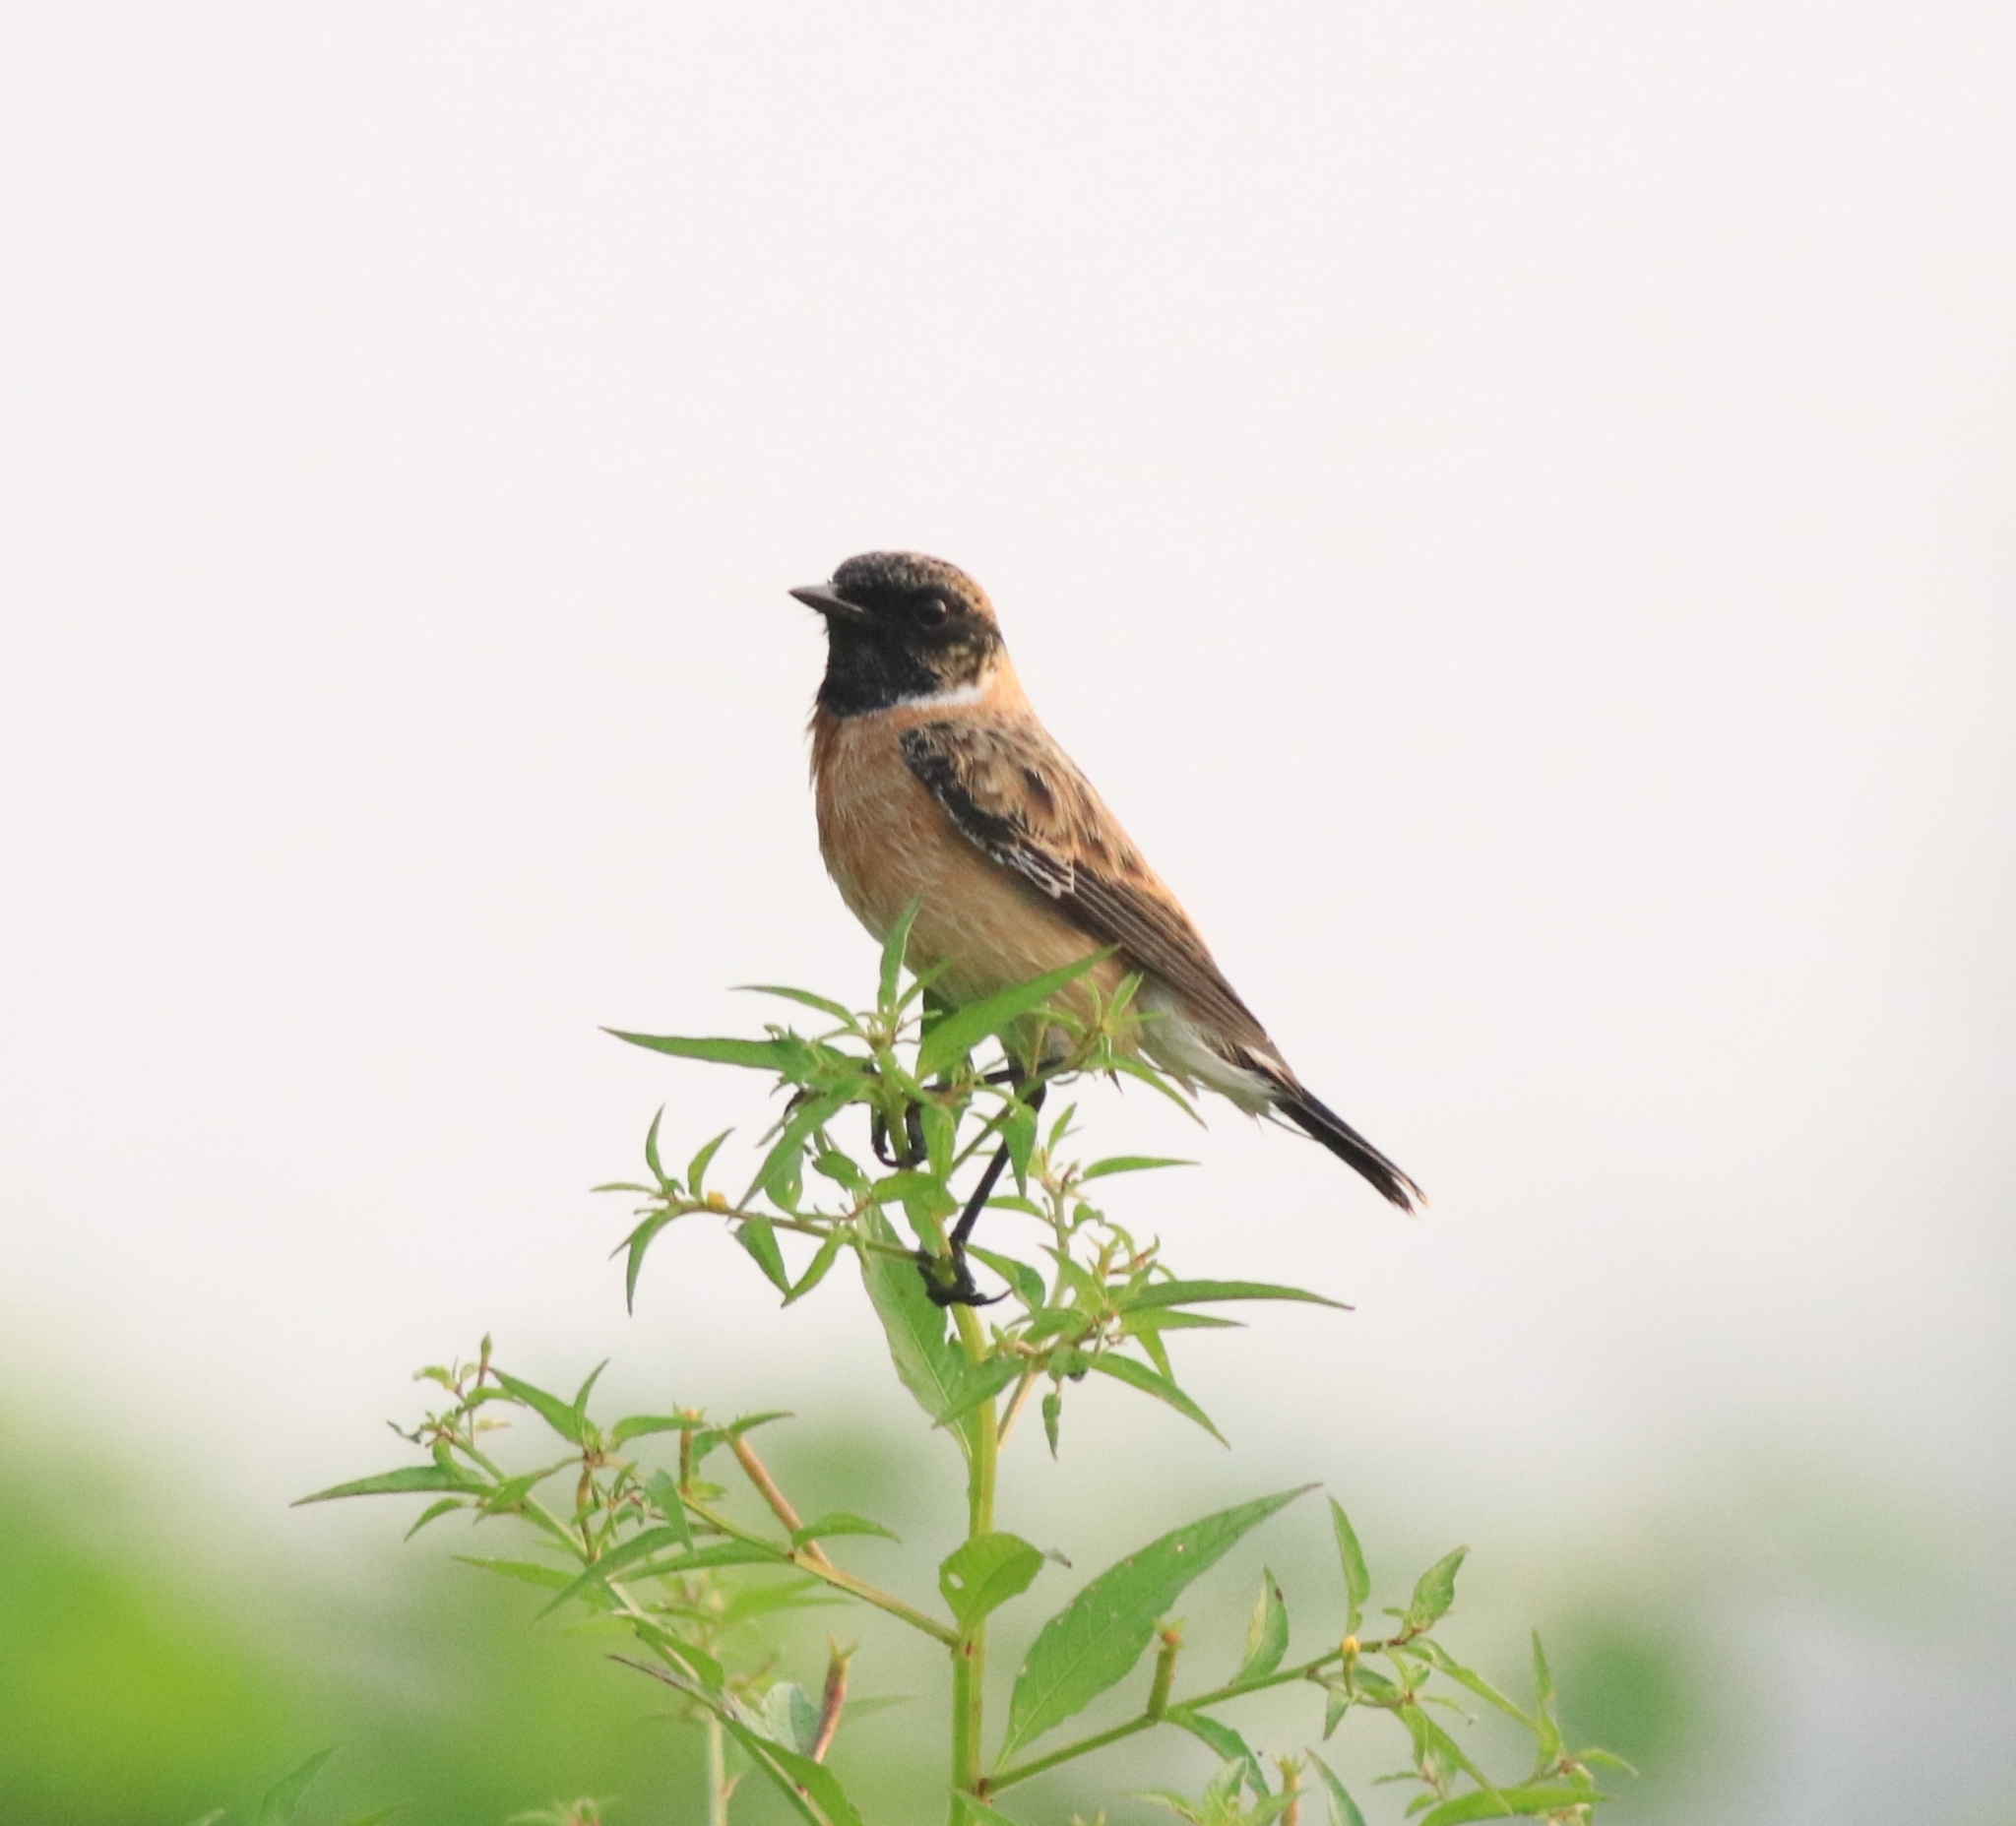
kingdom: Animalia
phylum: Chordata
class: Aves
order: Passeriformes
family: Muscicapidae
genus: Saxicola
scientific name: Saxicola maurus
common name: Siberian stonechat
